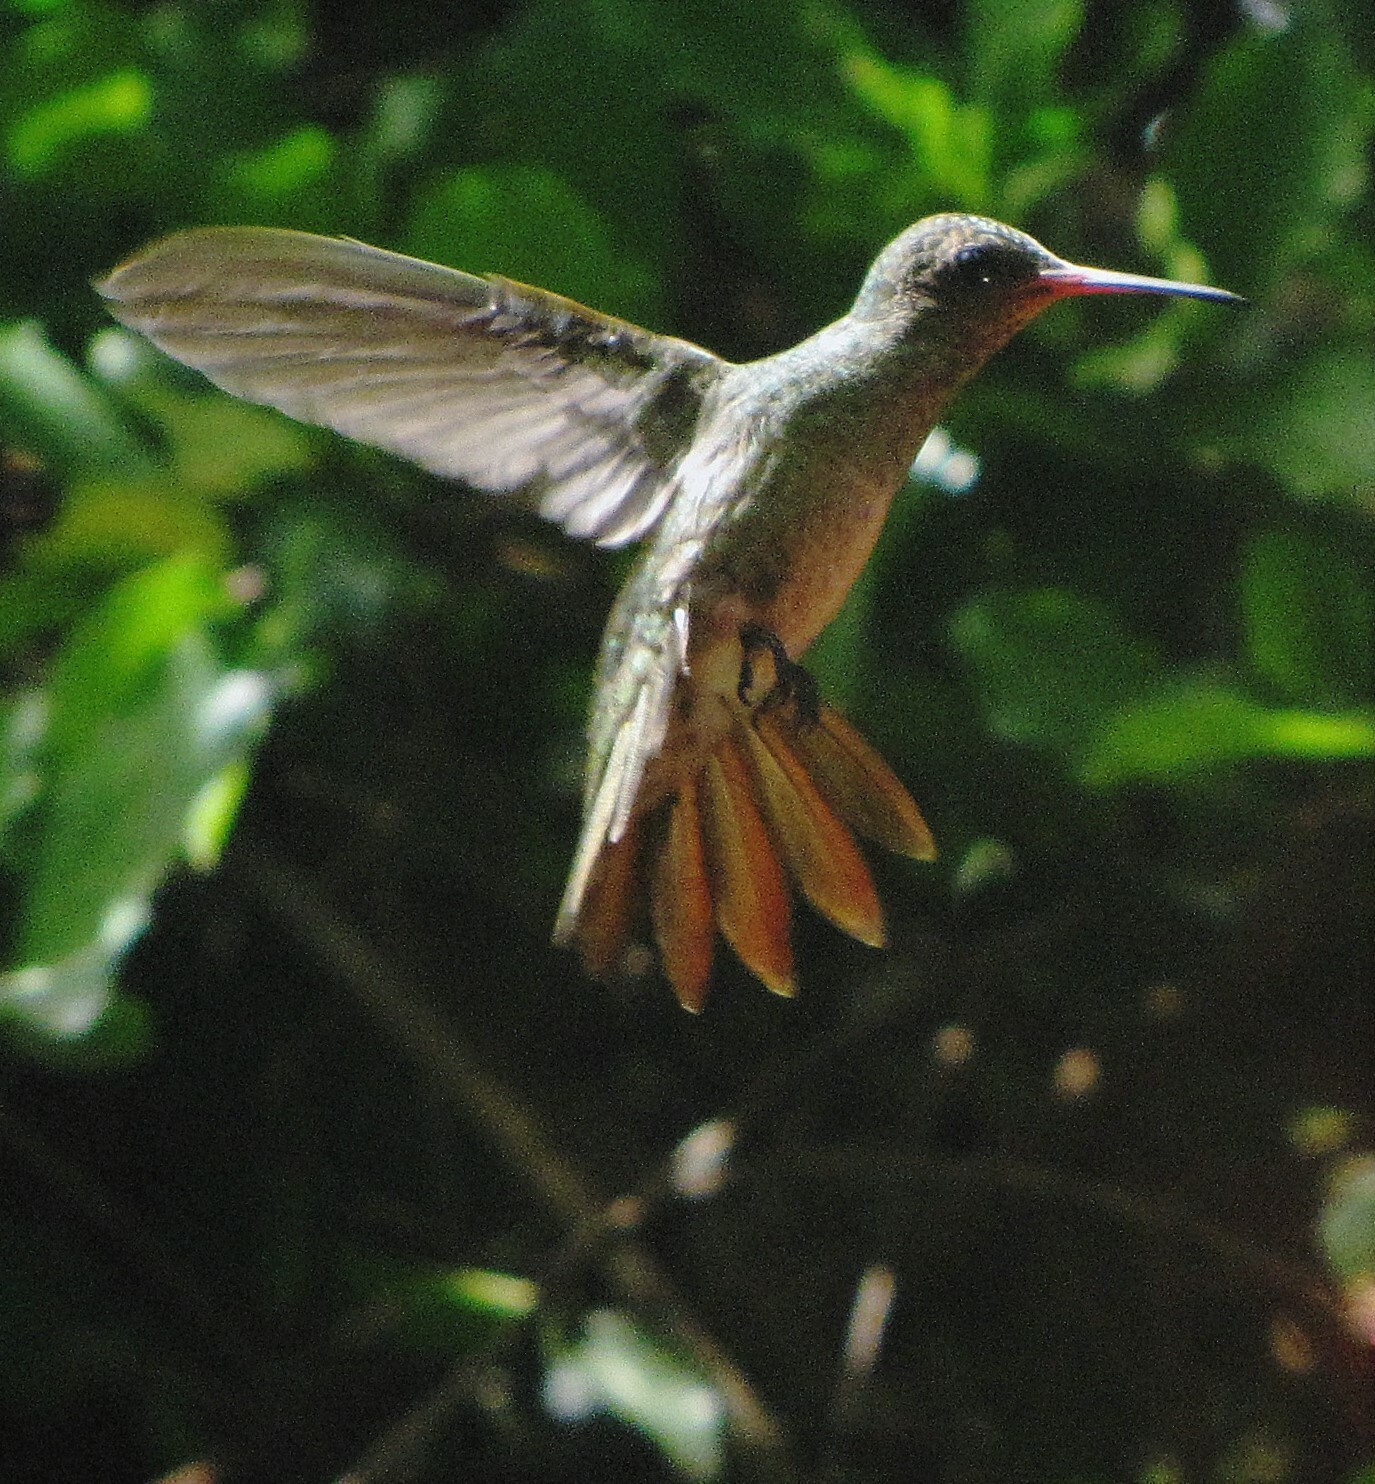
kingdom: Animalia
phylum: Chordata
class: Aves
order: Apodiformes
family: Trochilidae
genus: Hylocharis
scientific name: Hylocharis chrysura
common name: Gilded sapphire
